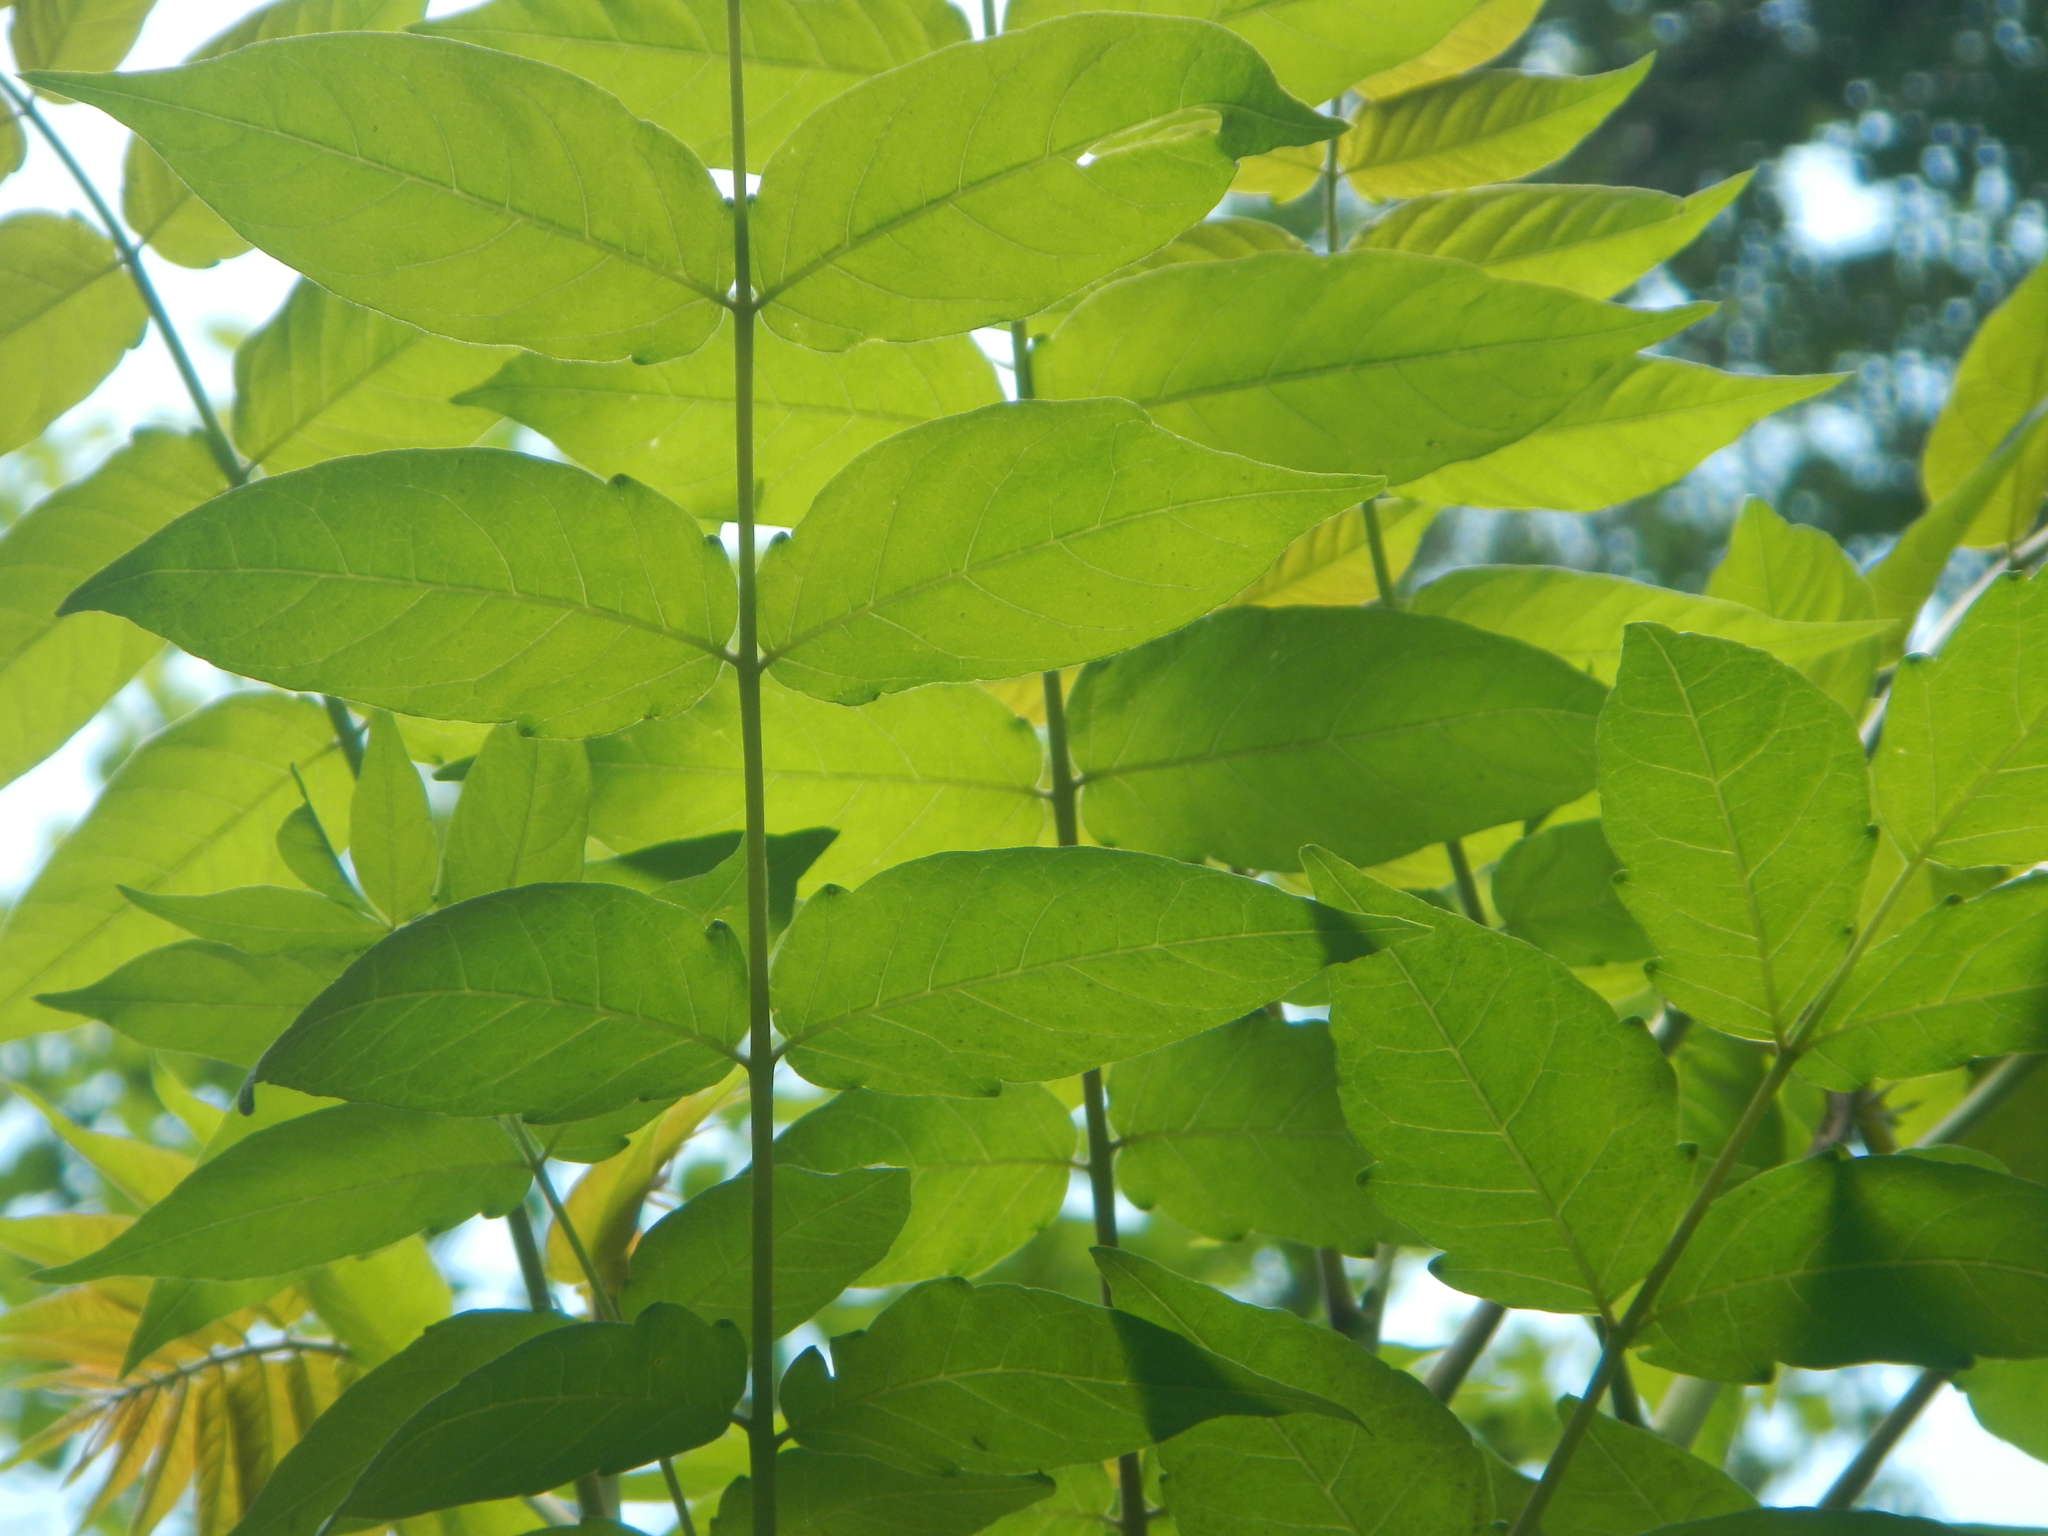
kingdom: Plantae
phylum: Tracheophyta
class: Magnoliopsida
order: Sapindales
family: Simaroubaceae
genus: Ailanthus
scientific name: Ailanthus altissima
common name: Tree-of-heaven
